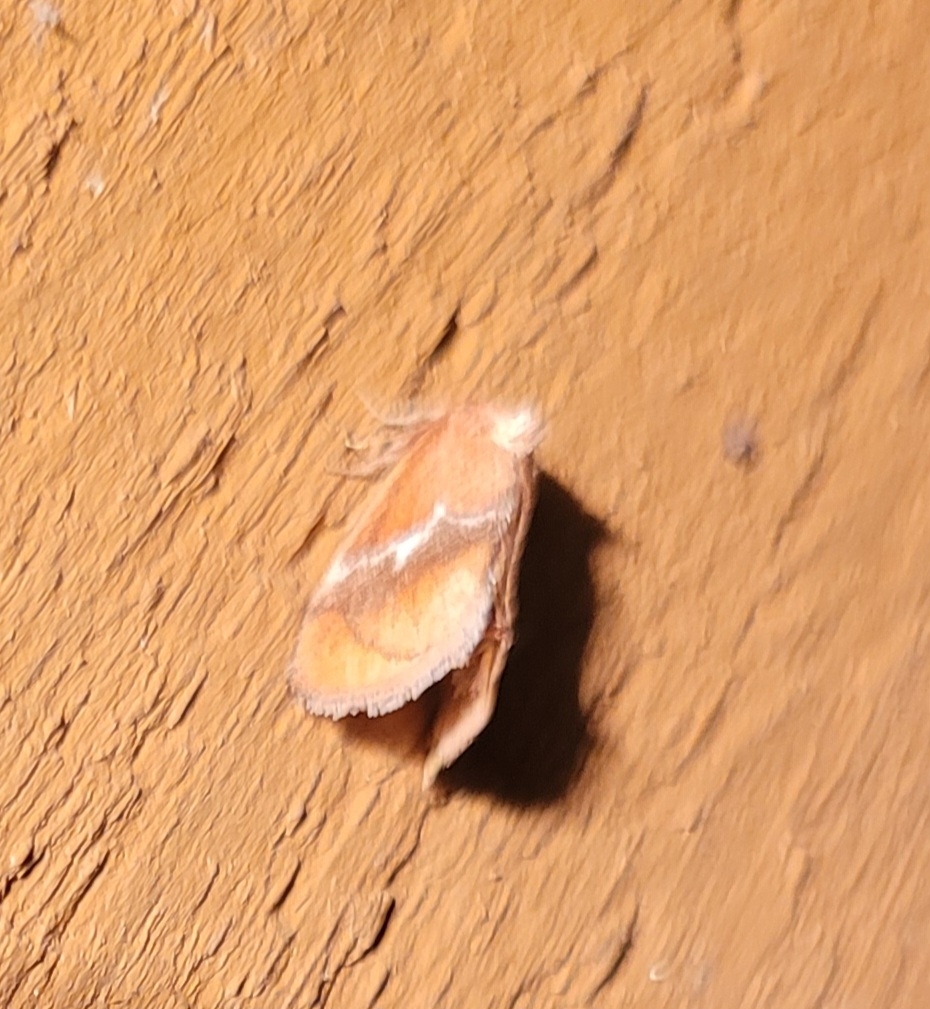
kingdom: Animalia
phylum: Arthropoda
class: Insecta
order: Lepidoptera
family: Limacodidae
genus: Lithacodes
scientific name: Lithacodes fasciola
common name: Yellow-shouldered slug moth
